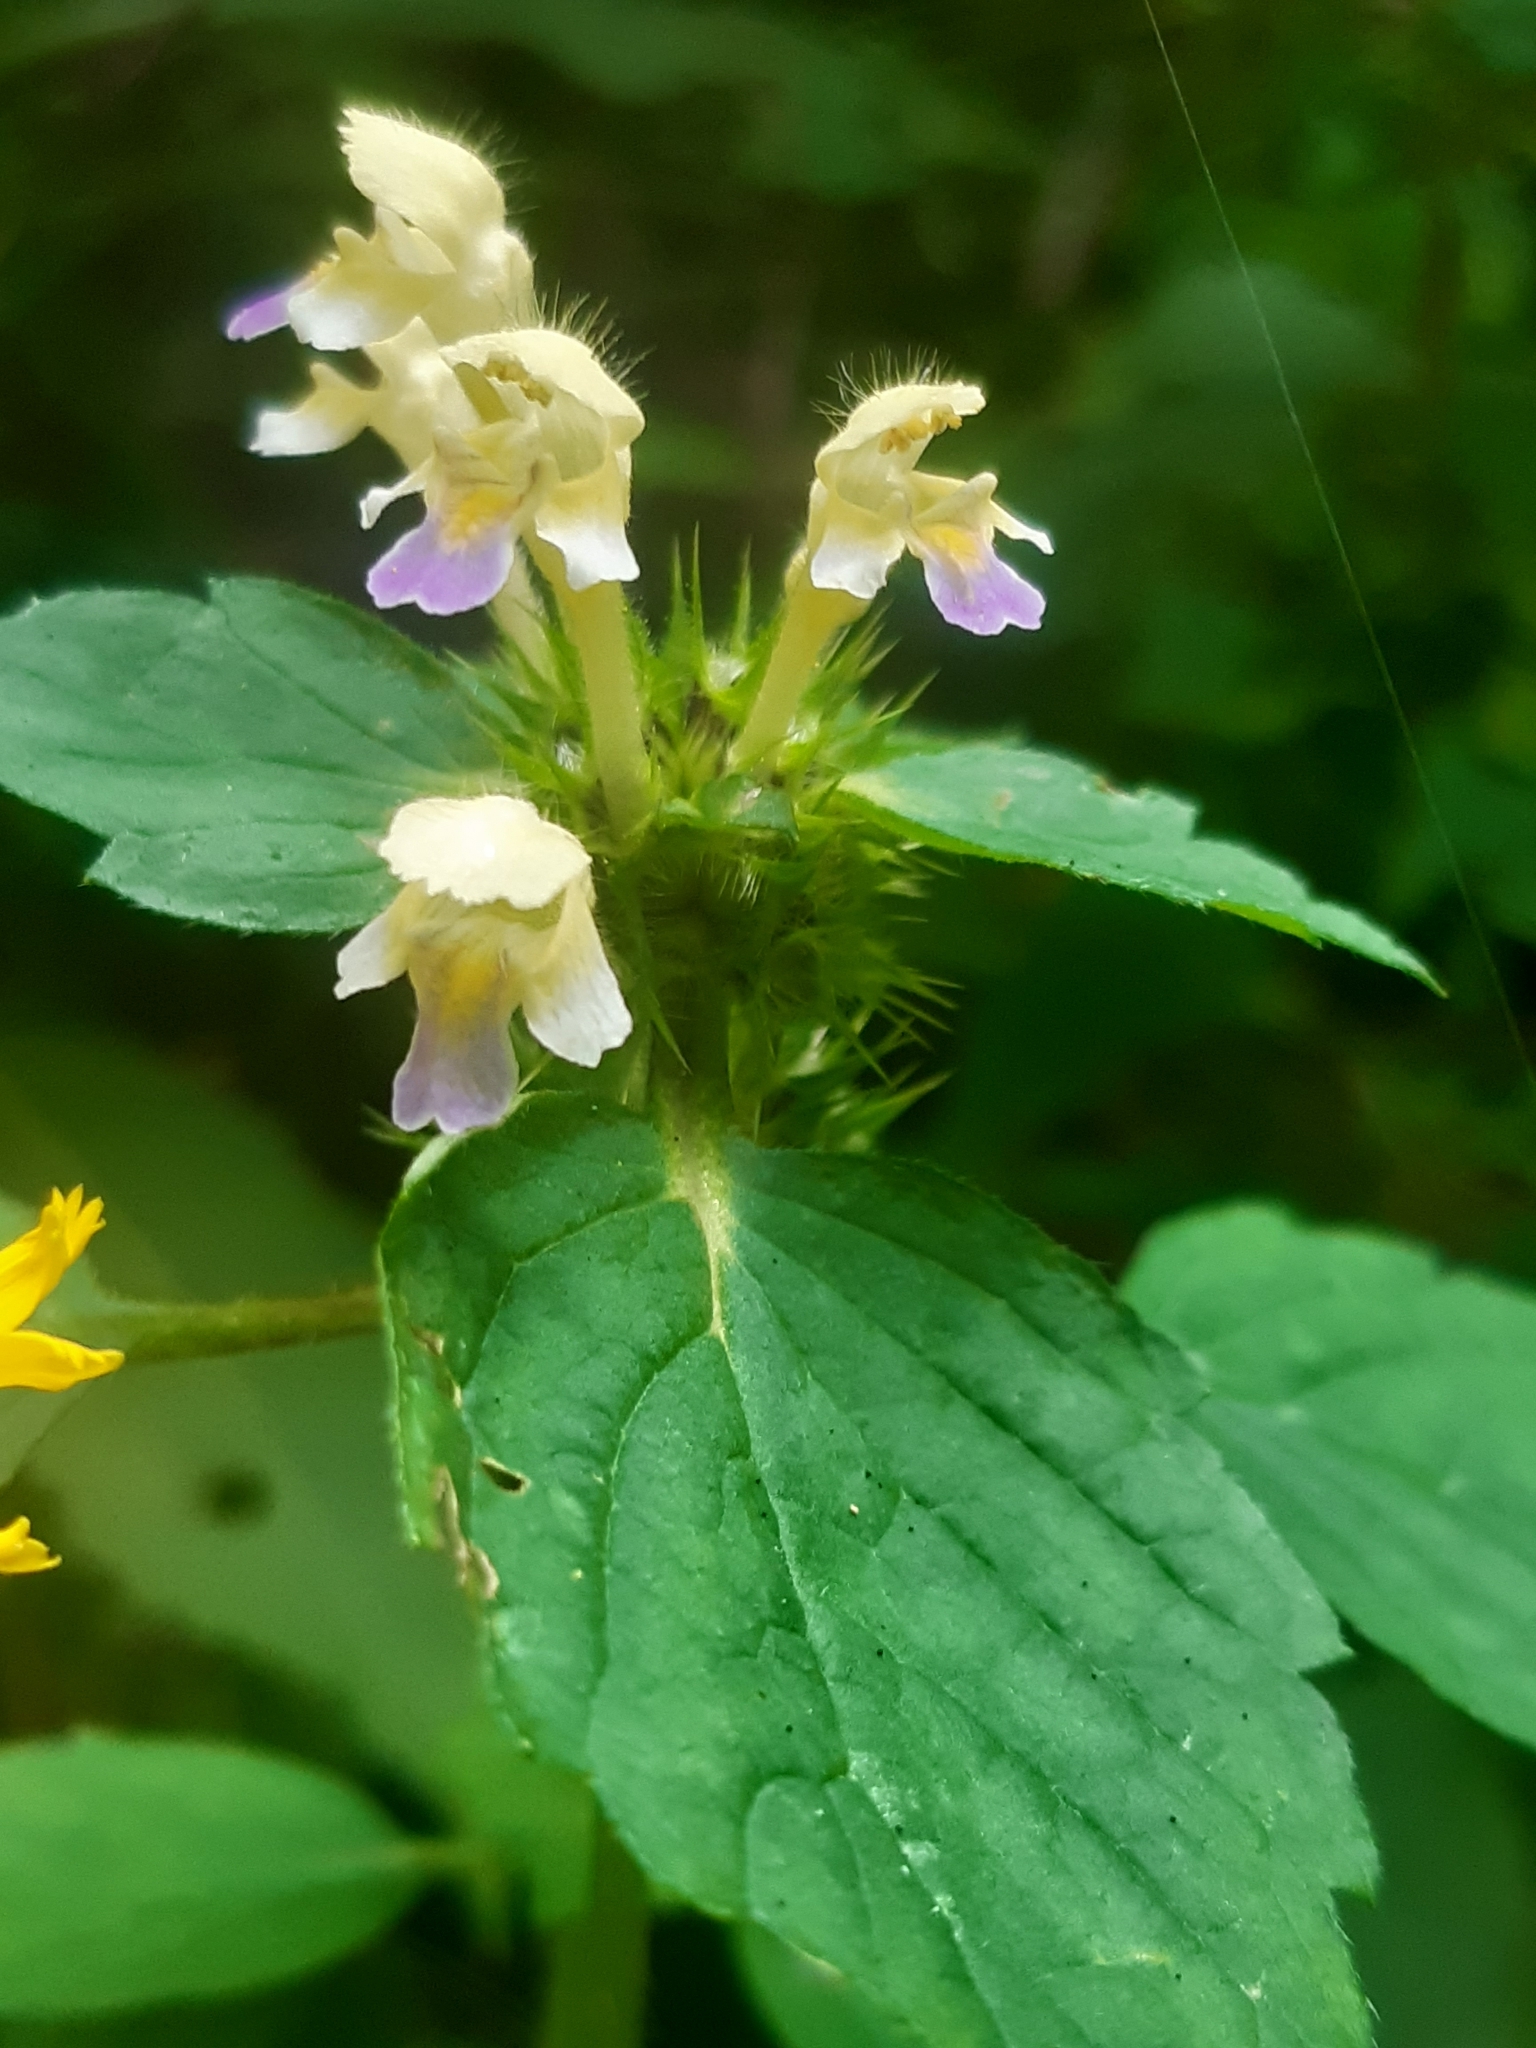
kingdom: Plantae
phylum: Tracheophyta
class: Magnoliopsida
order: Lamiales
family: Lamiaceae
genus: Galeopsis
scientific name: Galeopsis speciosa
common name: Large-flowered hemp-nettle
